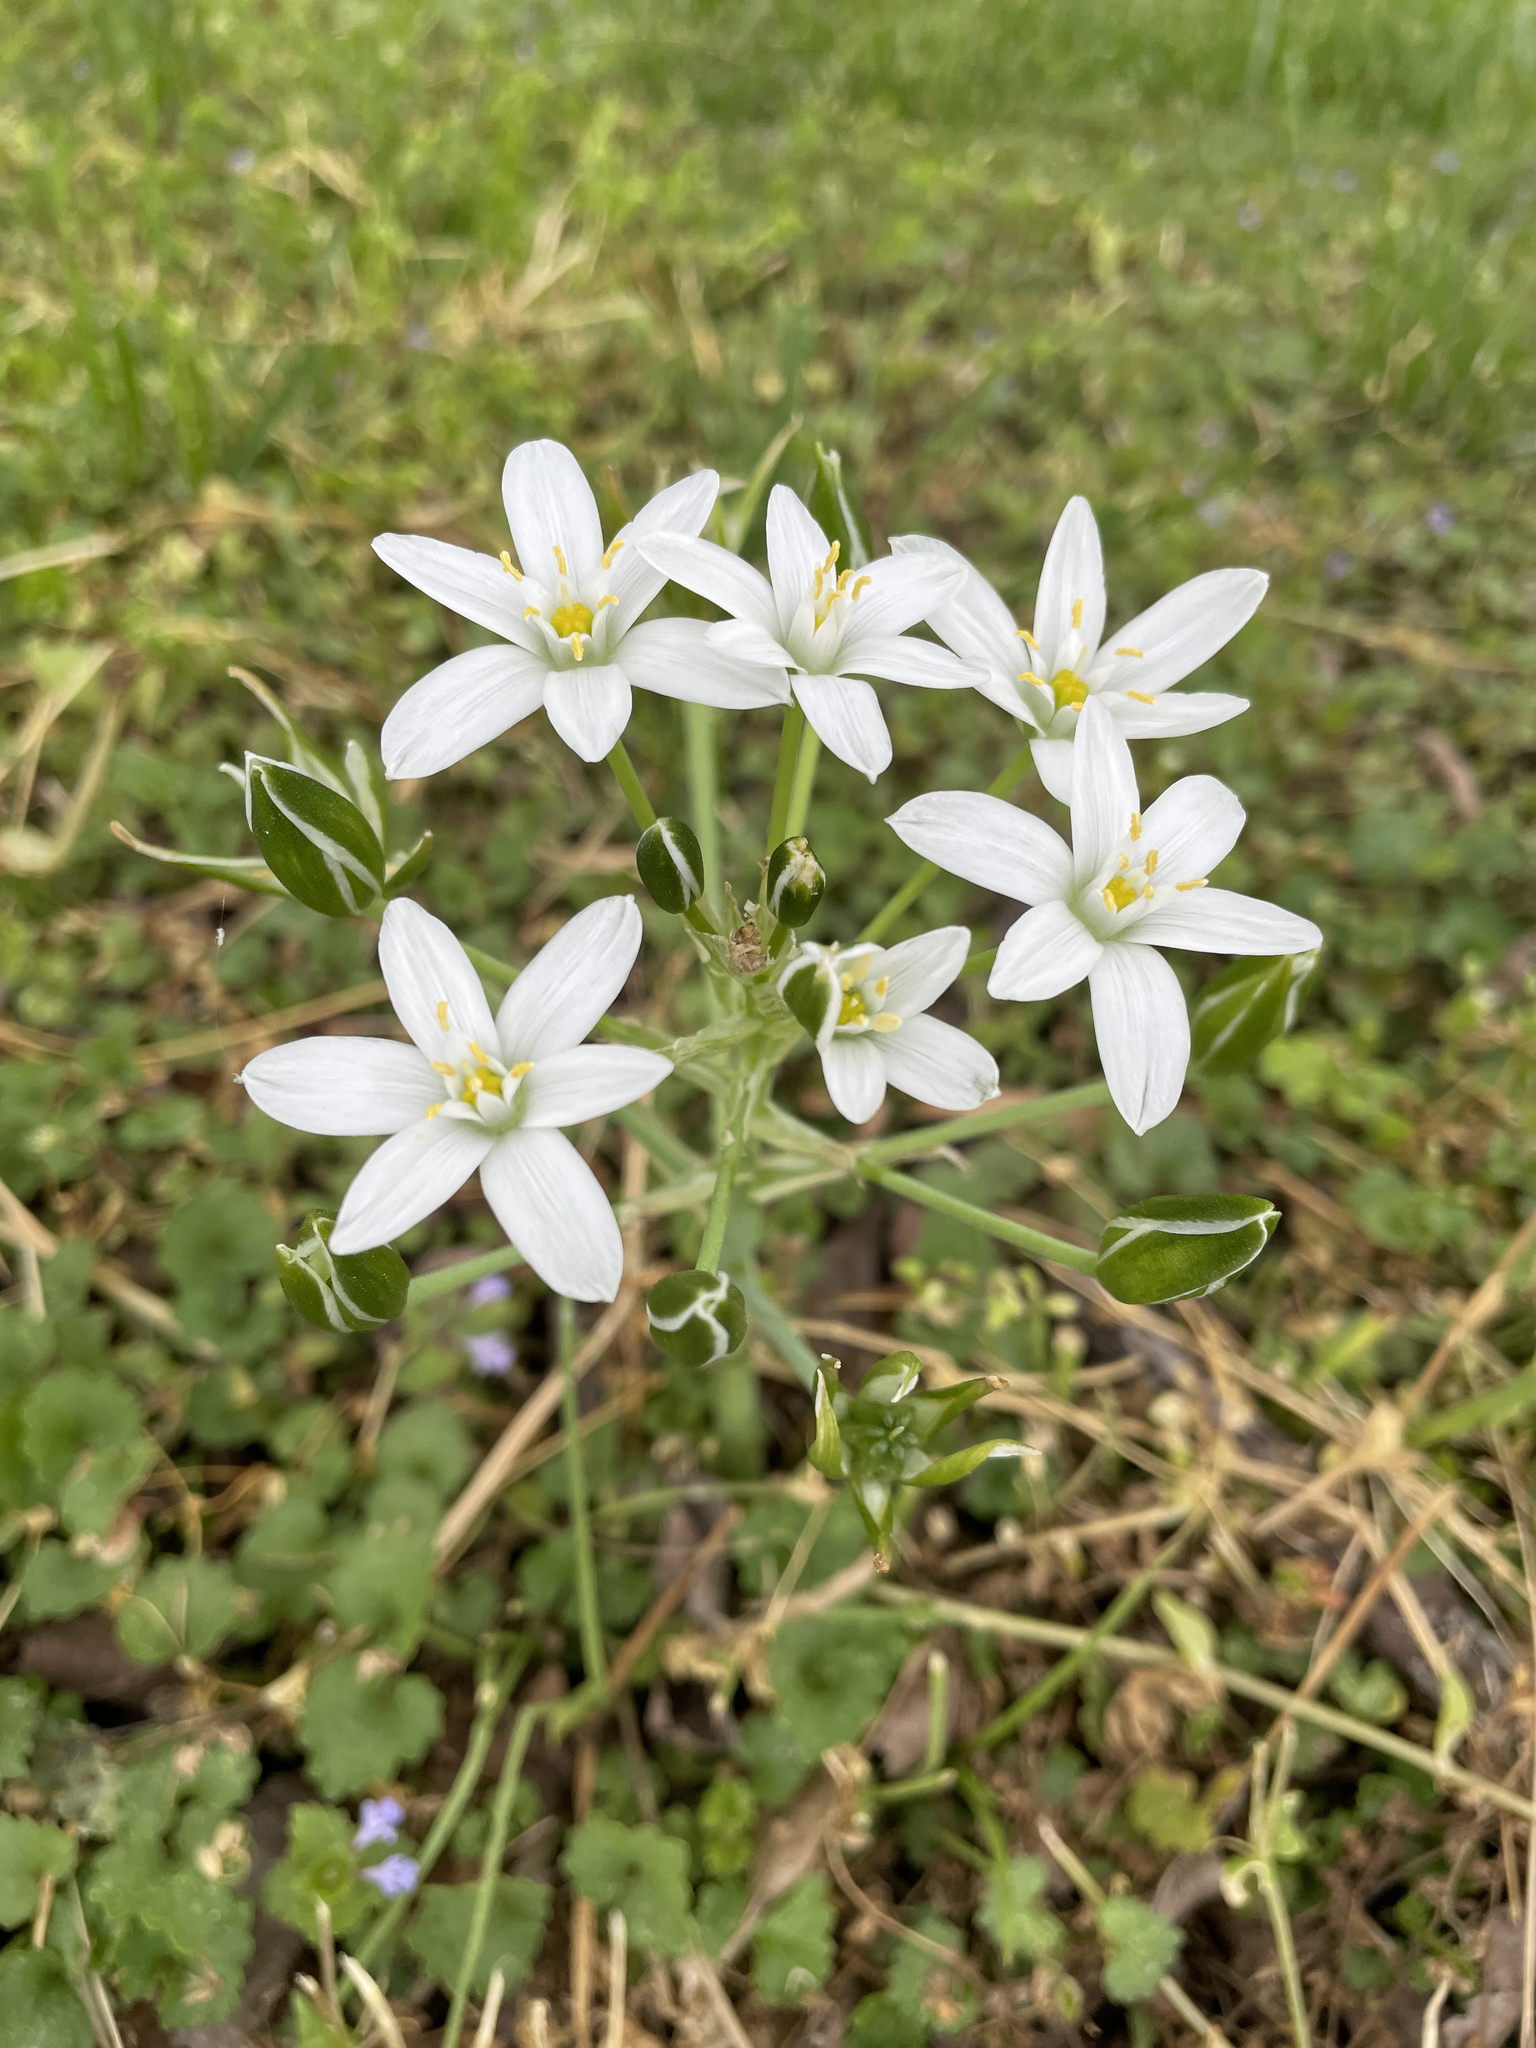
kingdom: Plantae
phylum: Tracheophyta
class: Liliopsida
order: Asparagales
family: Asparagaceae
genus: Ornithogalum
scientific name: Ornithogalum umbellatum
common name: Garden star-of-bethlehem
